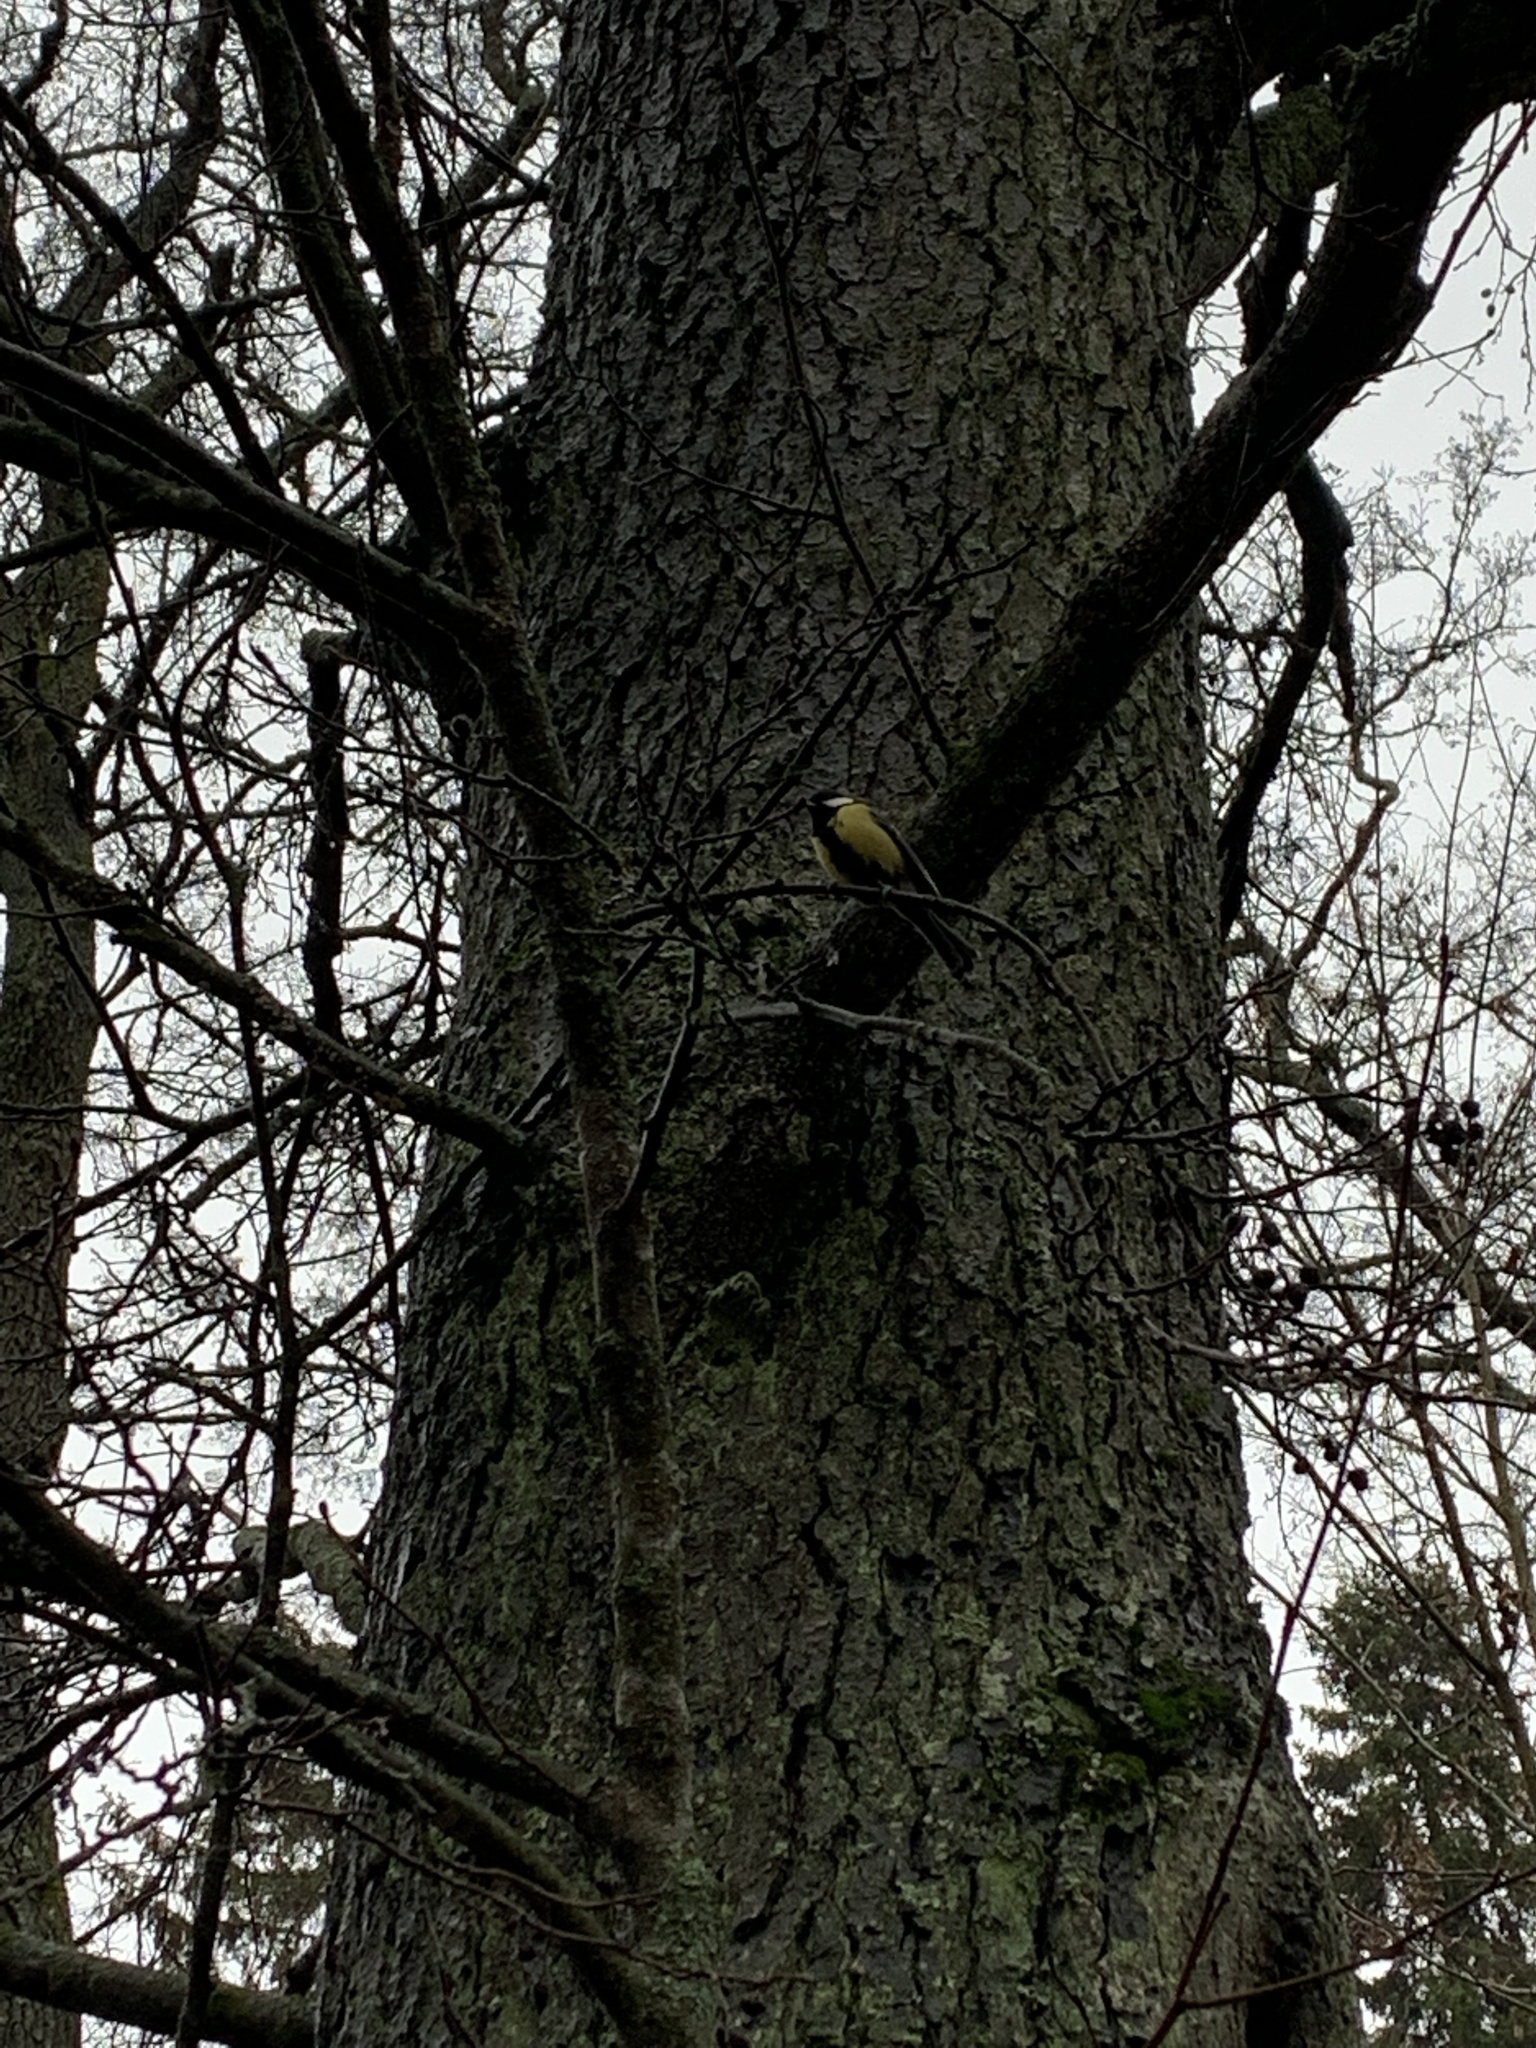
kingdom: Animalia
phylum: Chordata
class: Aves
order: Passeriformes
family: Paridae
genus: Parus
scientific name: Parus major
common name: Great tit
